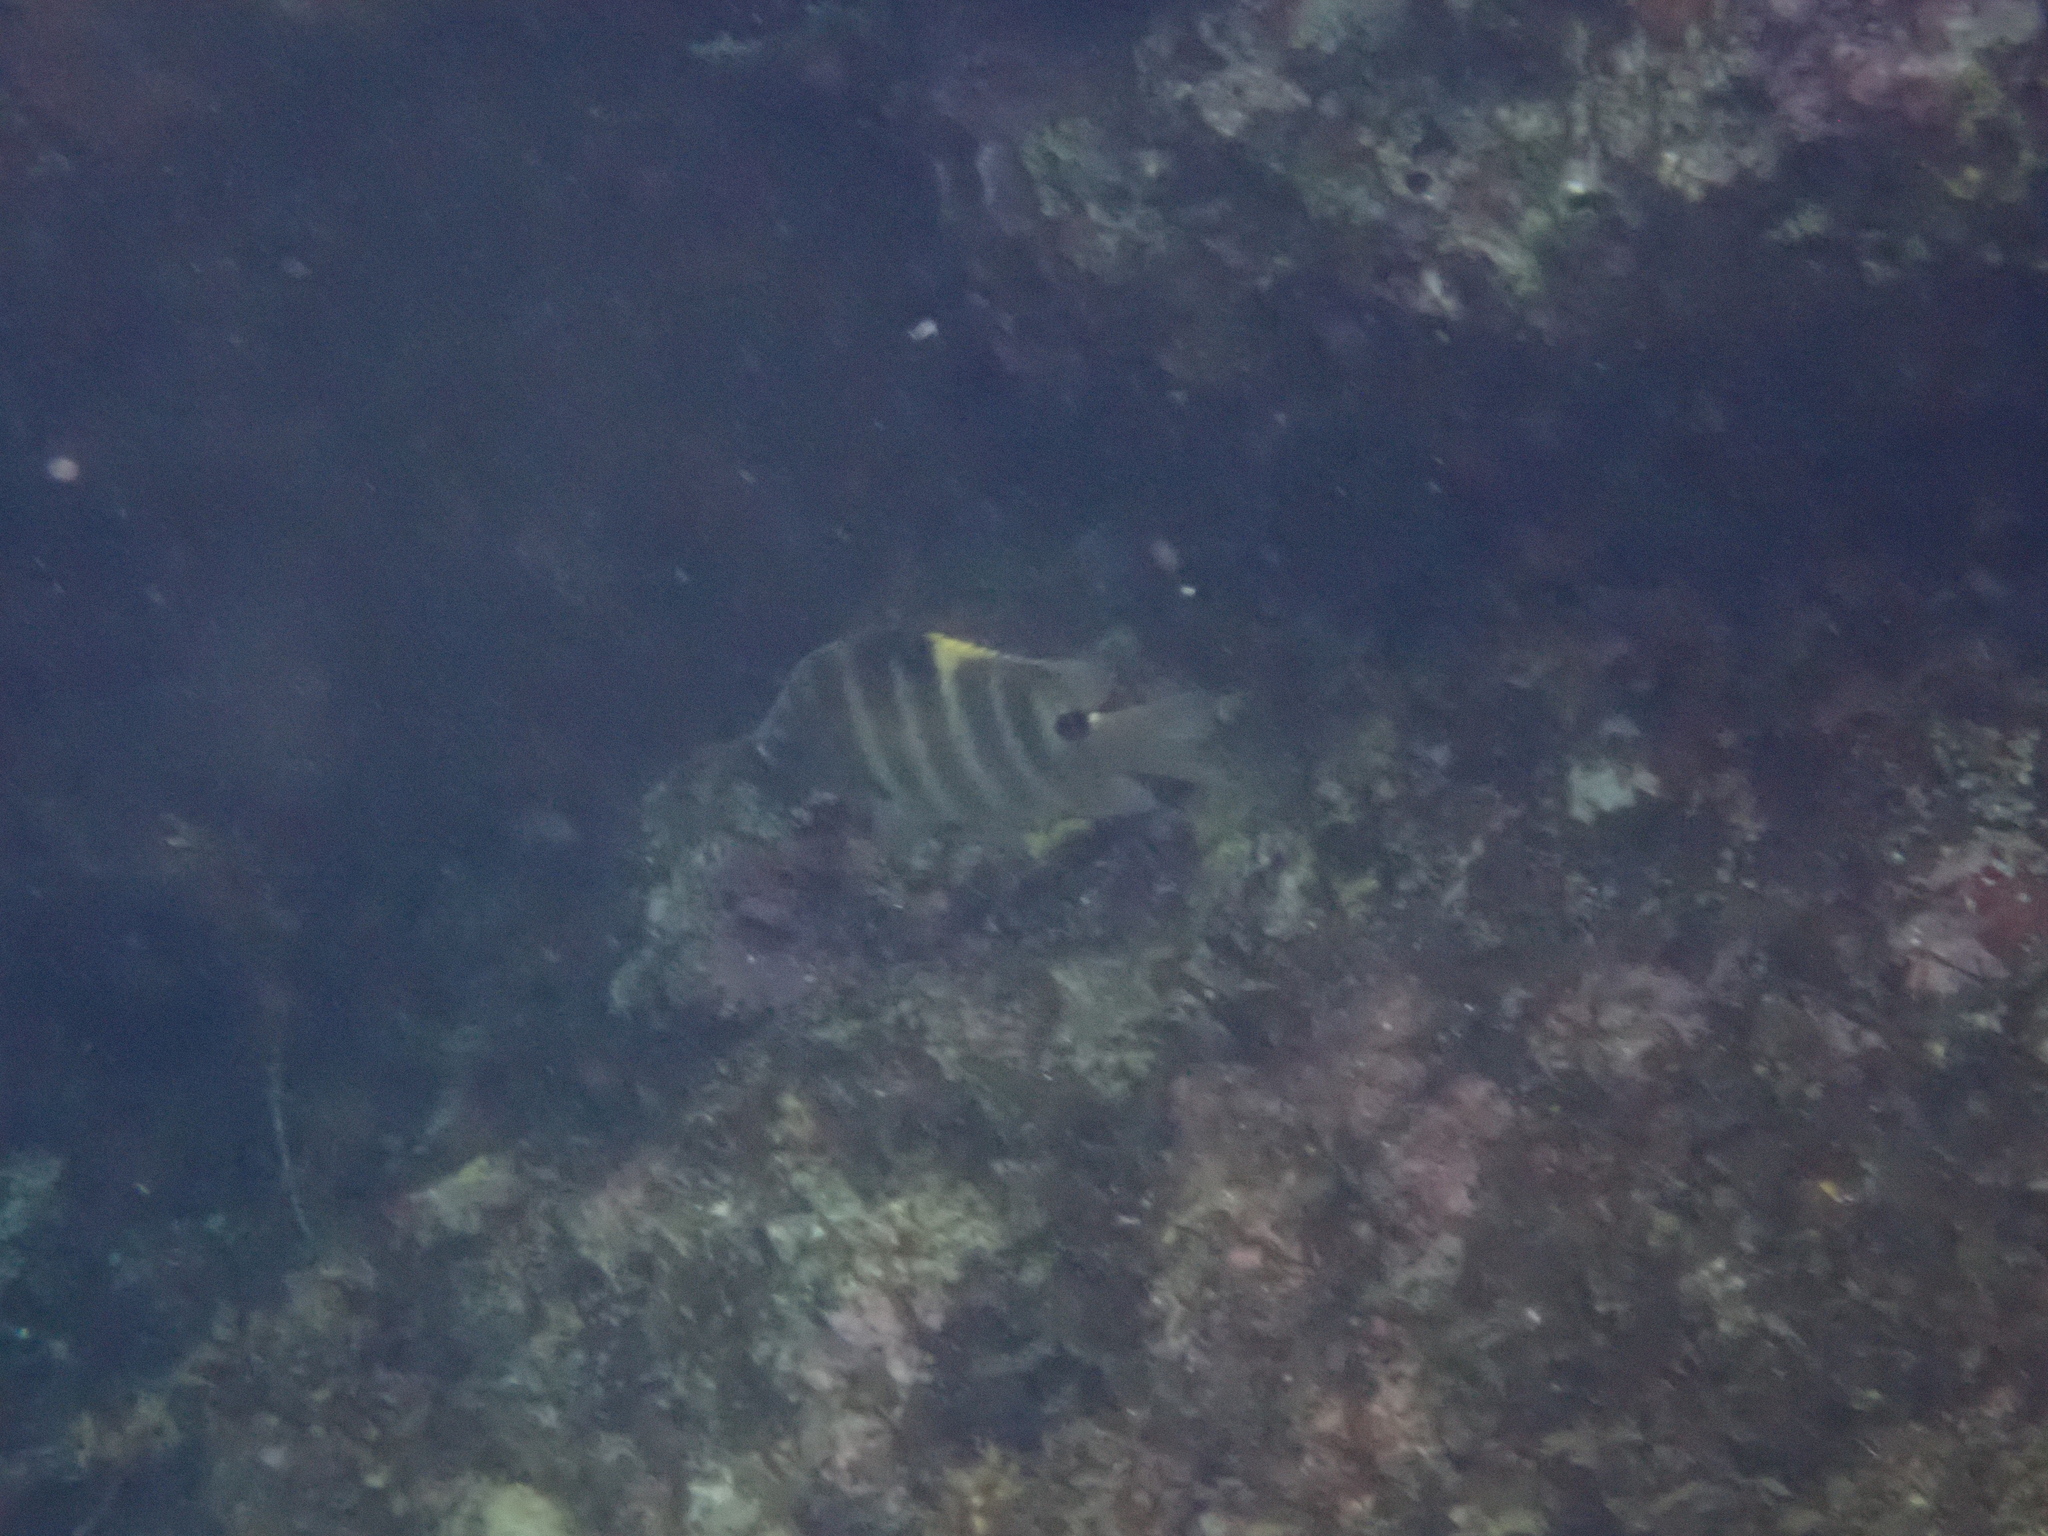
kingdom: Animalia
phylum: Chordata
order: Perciformes
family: Pomacentridae
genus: Abudefduf
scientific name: Abudefduf sordidus
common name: Blackspot sergeant
